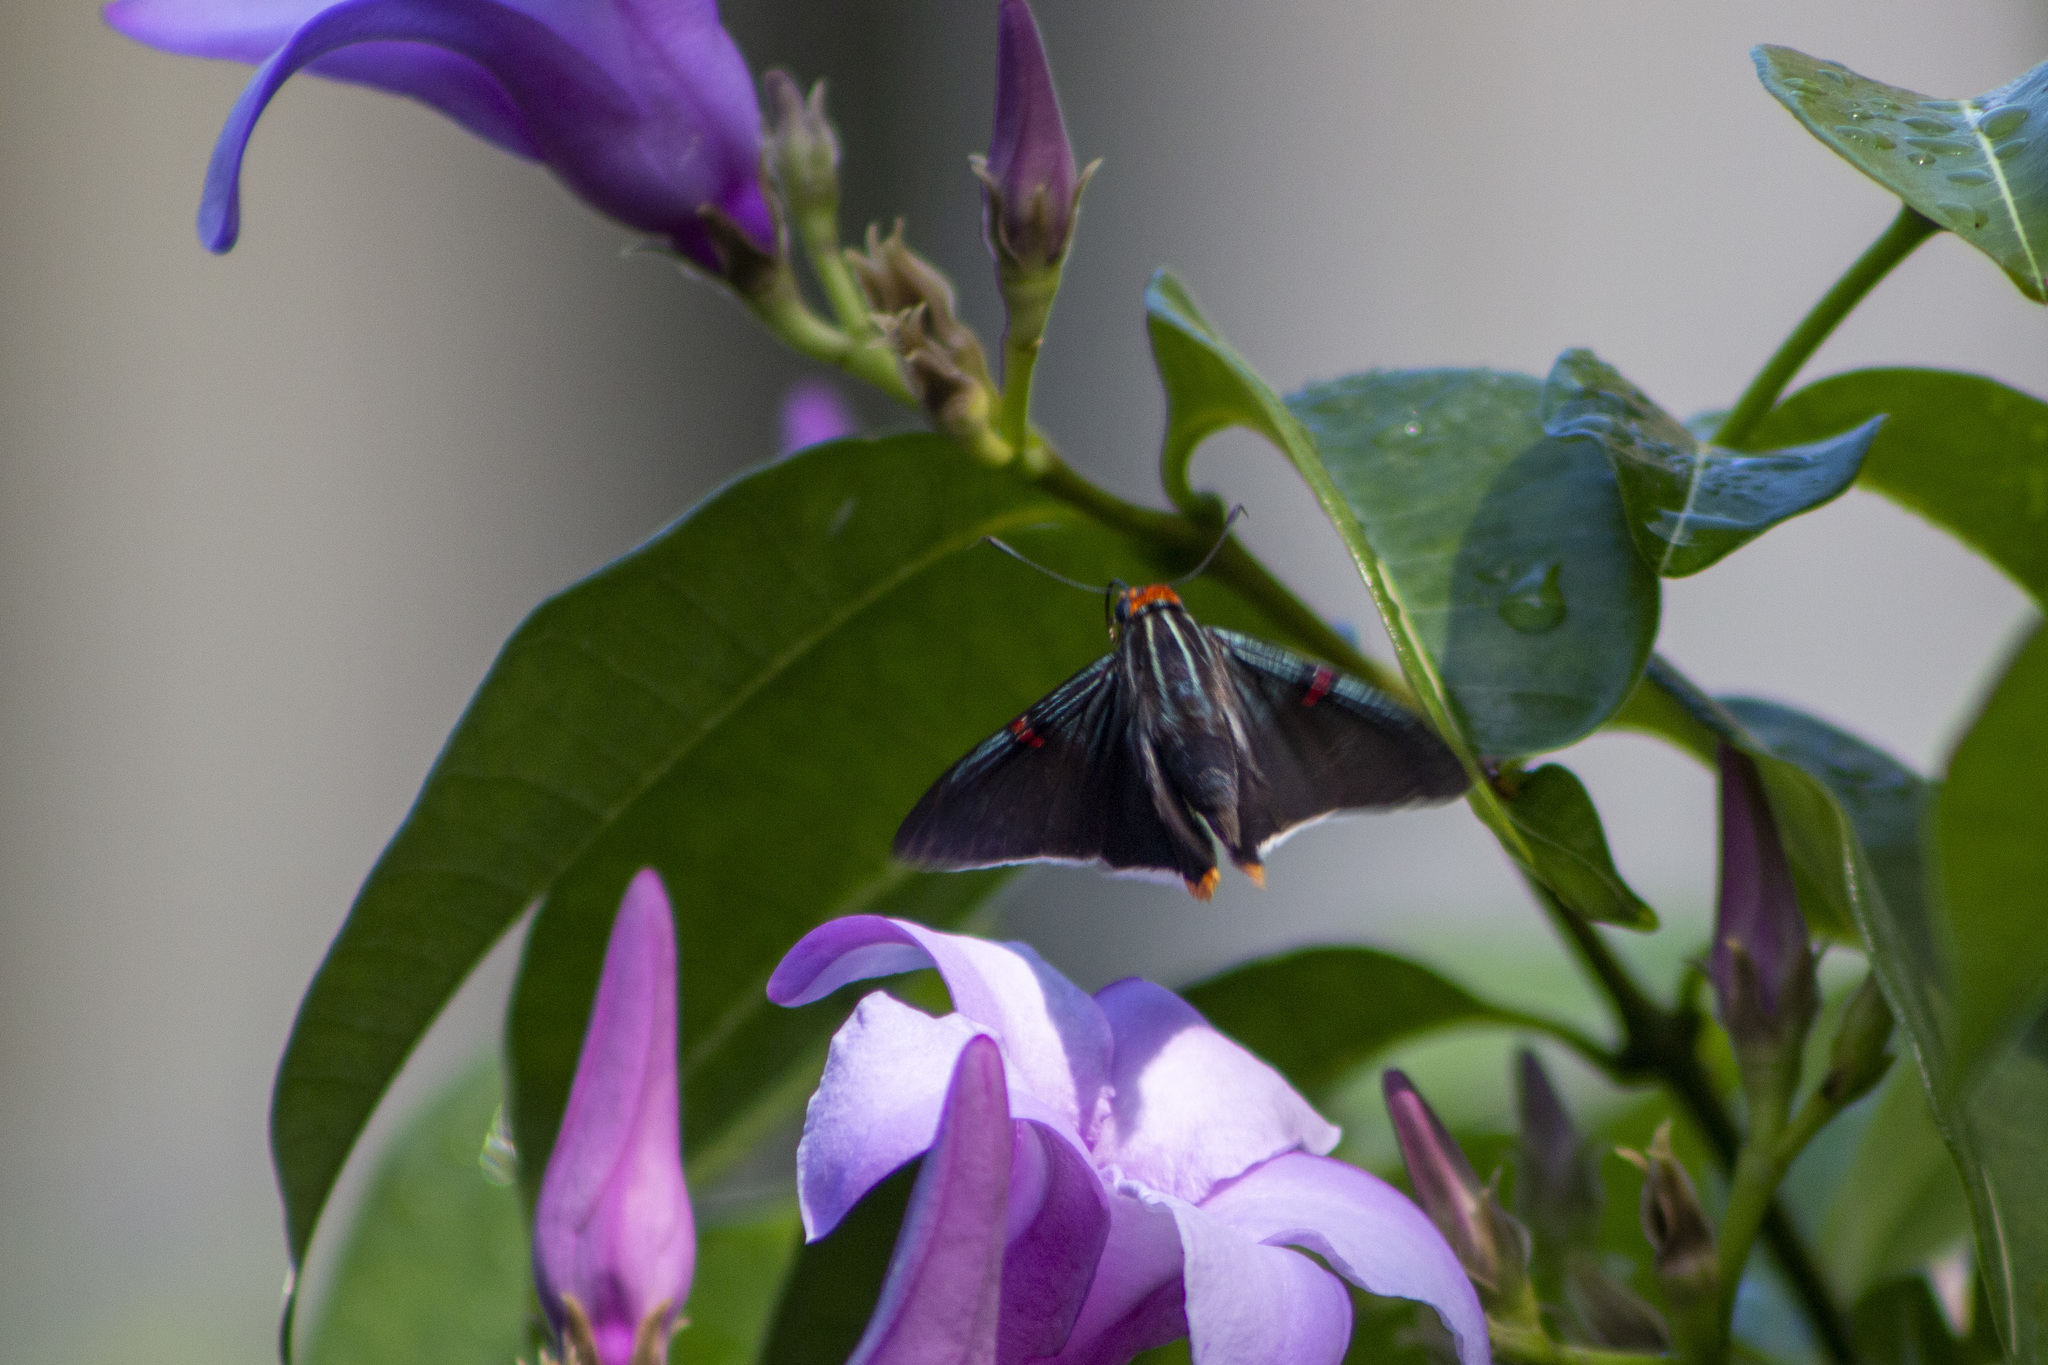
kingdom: Animalia
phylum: Arthropoda
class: Insecta
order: Lepidoptera
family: Hesperiidae
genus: Phocides
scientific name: Phocides polybius
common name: Guava skipper
